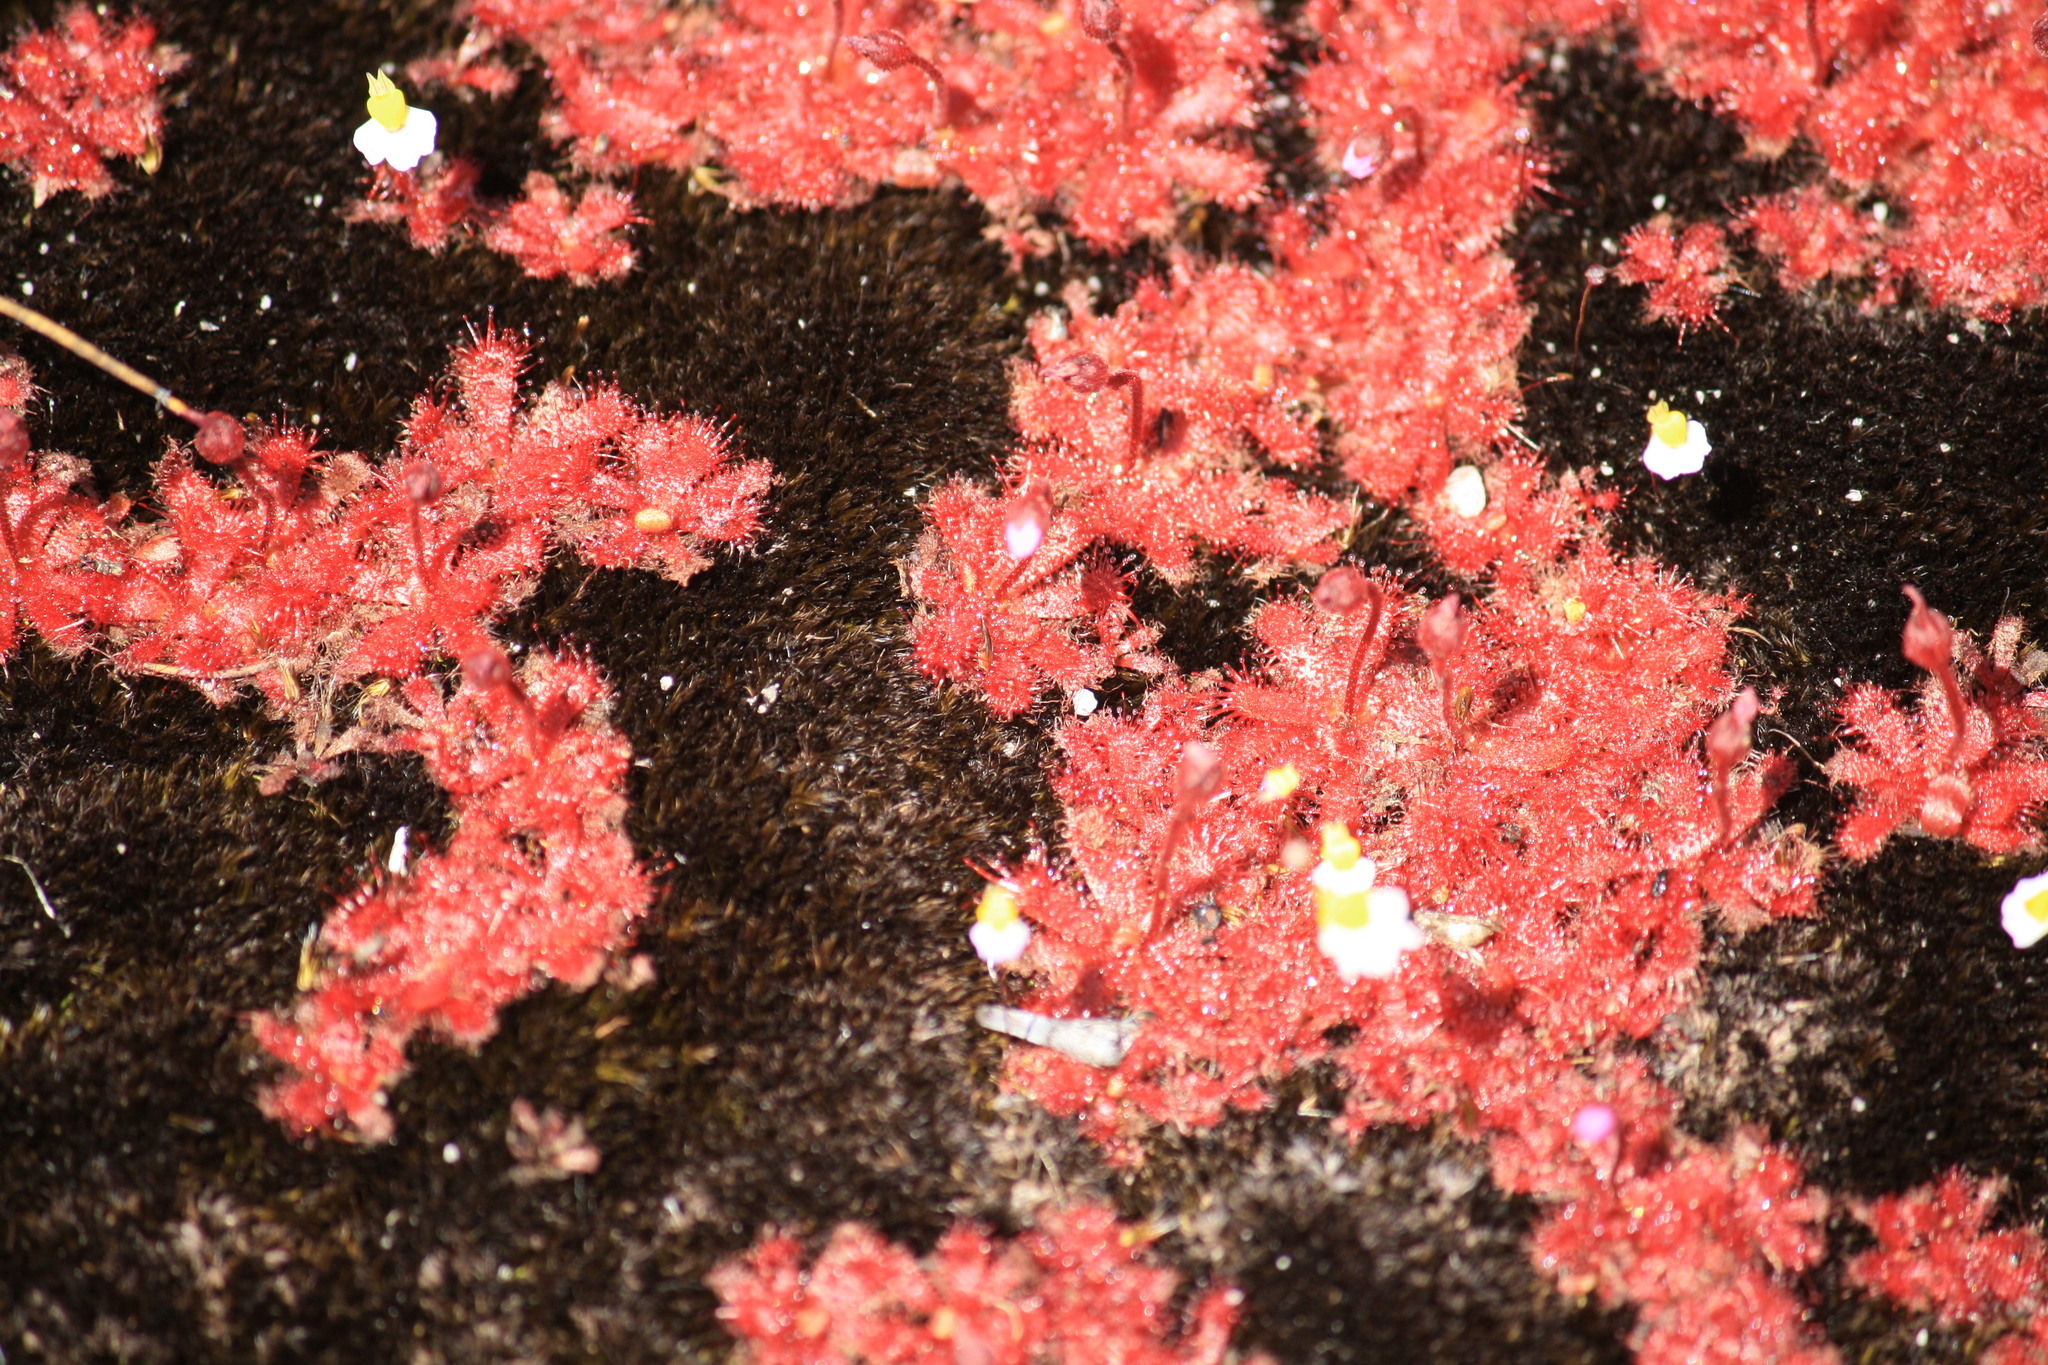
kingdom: Plantae
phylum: Tracheophyta
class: Magnoliopsida
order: Caryophyllales
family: Droseraceae
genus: Drosera
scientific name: Drosera trinervia
